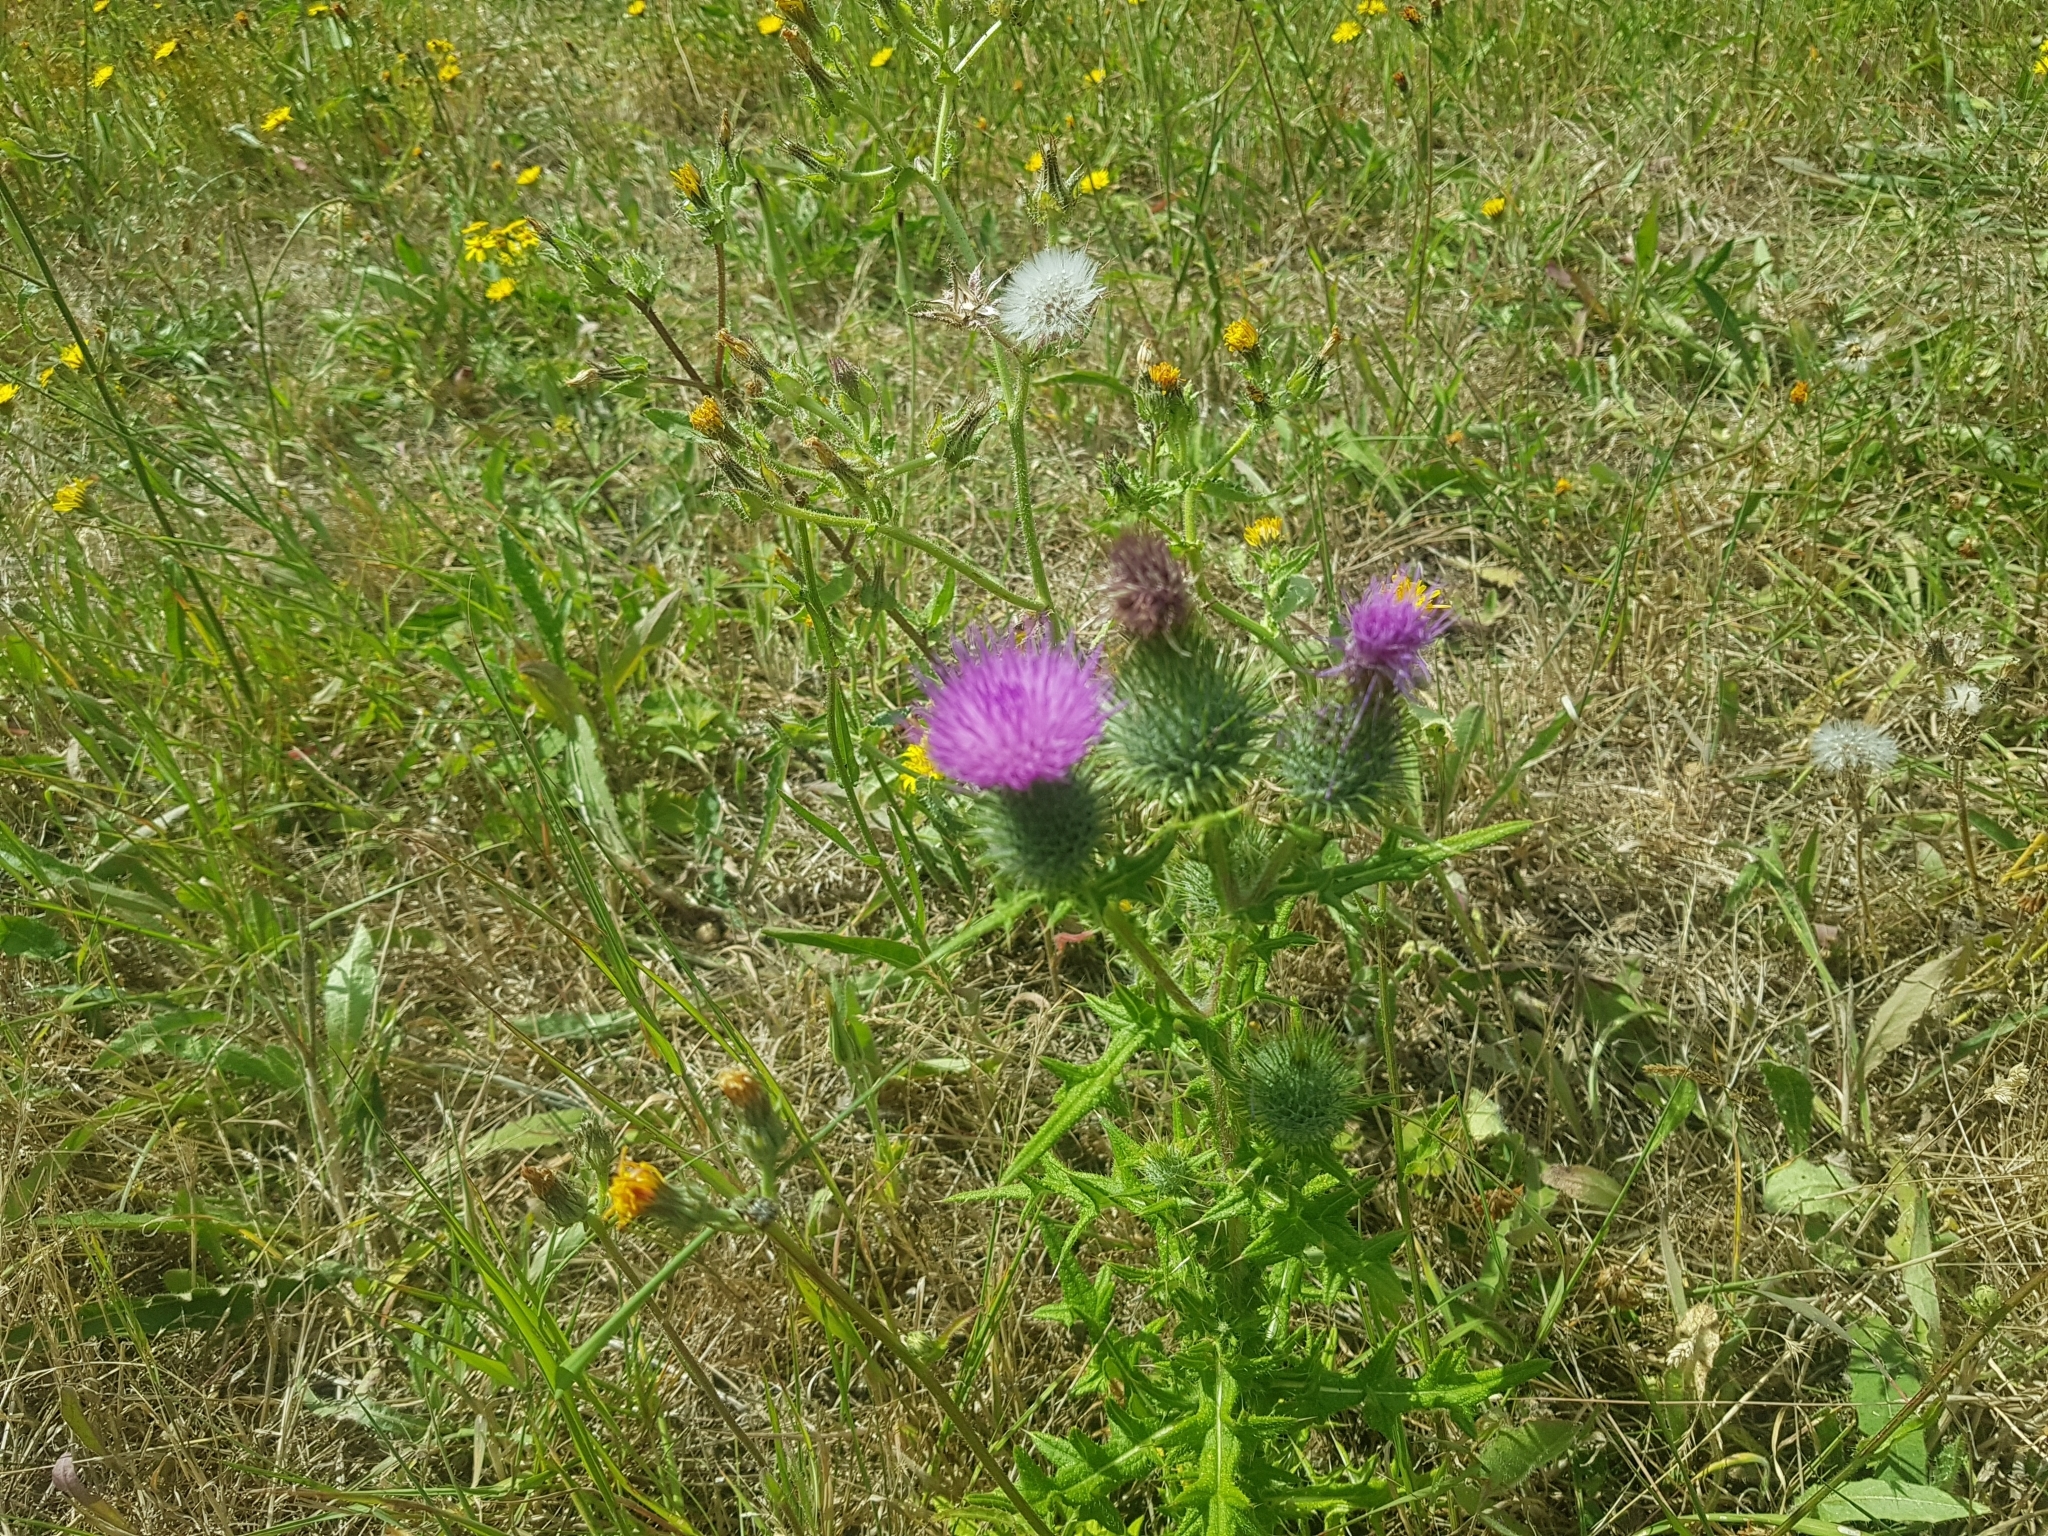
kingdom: Plantae
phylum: Tracheophyta
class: Magnoliopsida
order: Asterales
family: Asteraceae
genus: Cirsium
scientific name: Cirsium vulgare
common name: Bull thistle
